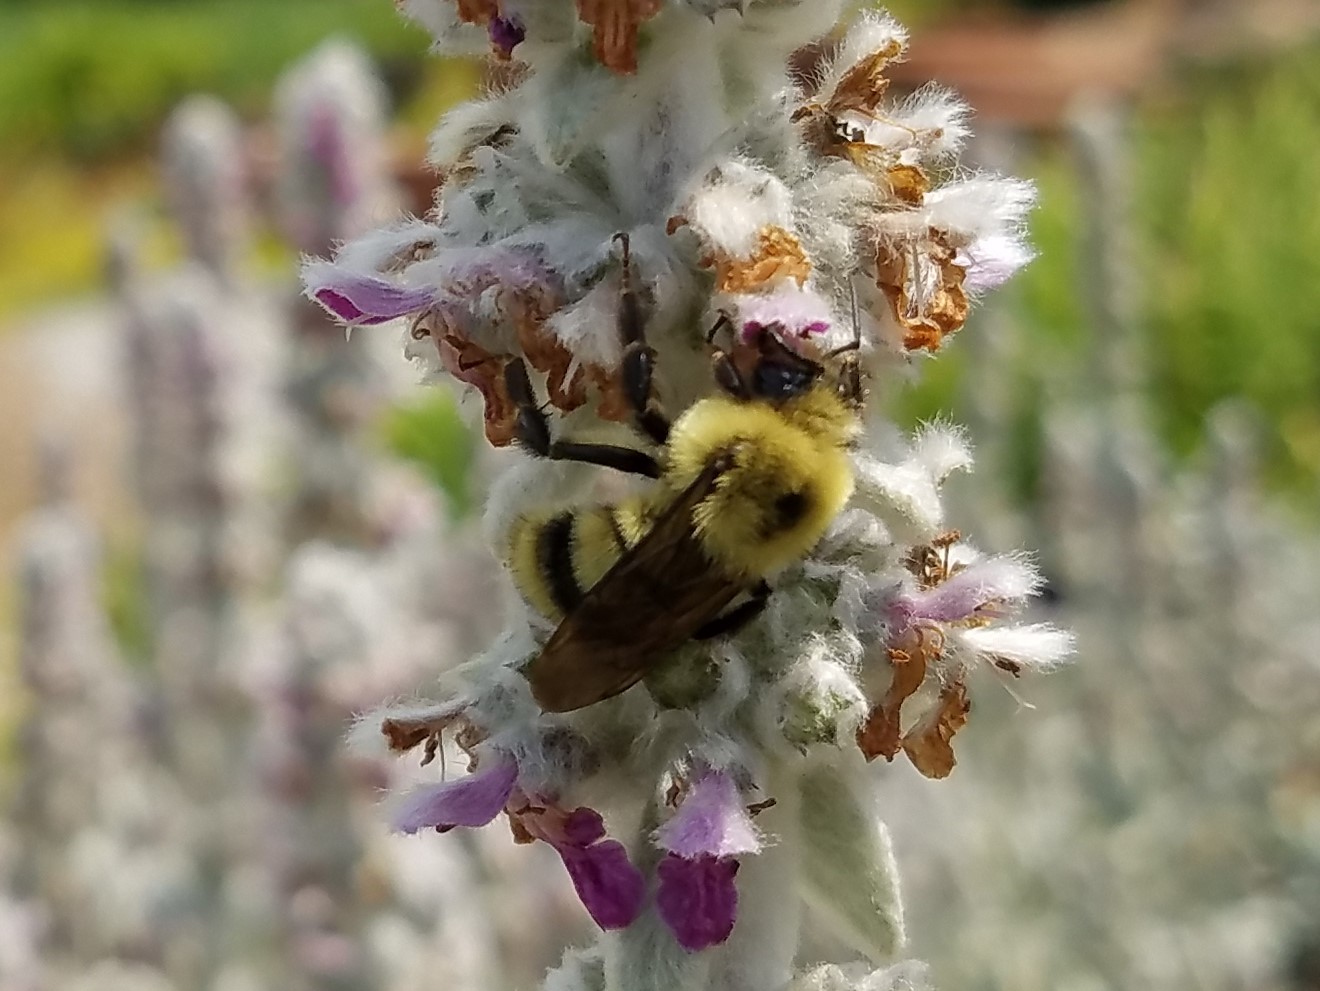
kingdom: Animalia
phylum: Arthropoda
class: Insecta
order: Hymenoptera
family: Apidae
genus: Bombus
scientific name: Bombus bimaculatus
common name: Two-spotted bumble bee
